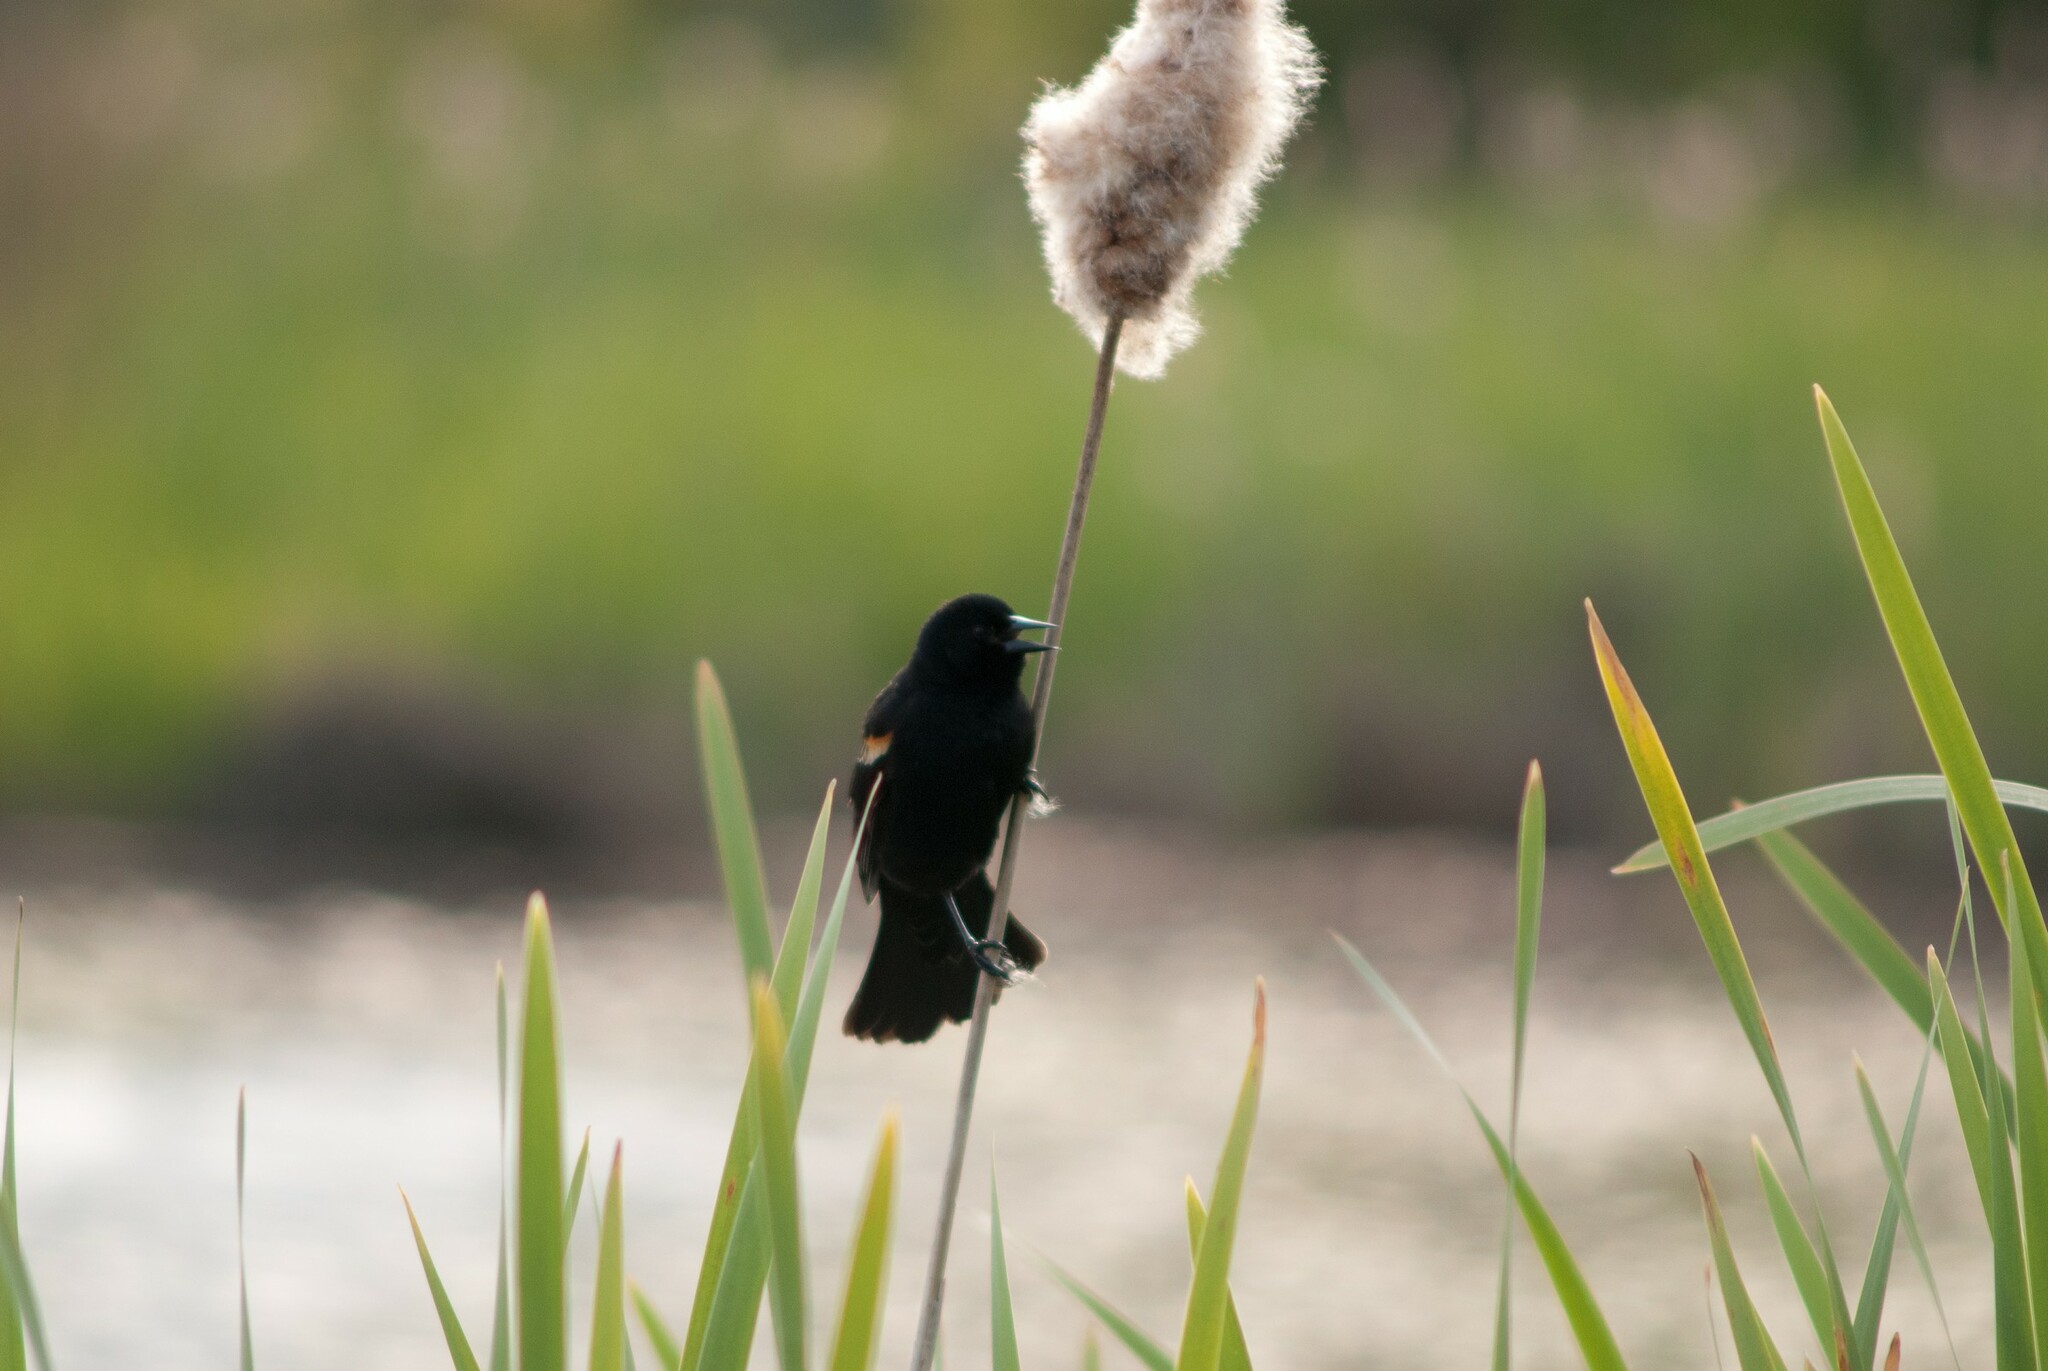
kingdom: Animalia
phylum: Chordata
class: Aves
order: Passeriformes
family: Icteridae
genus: Agelaius
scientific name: Agelaius phoeniceus
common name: Red-winged blackbird
